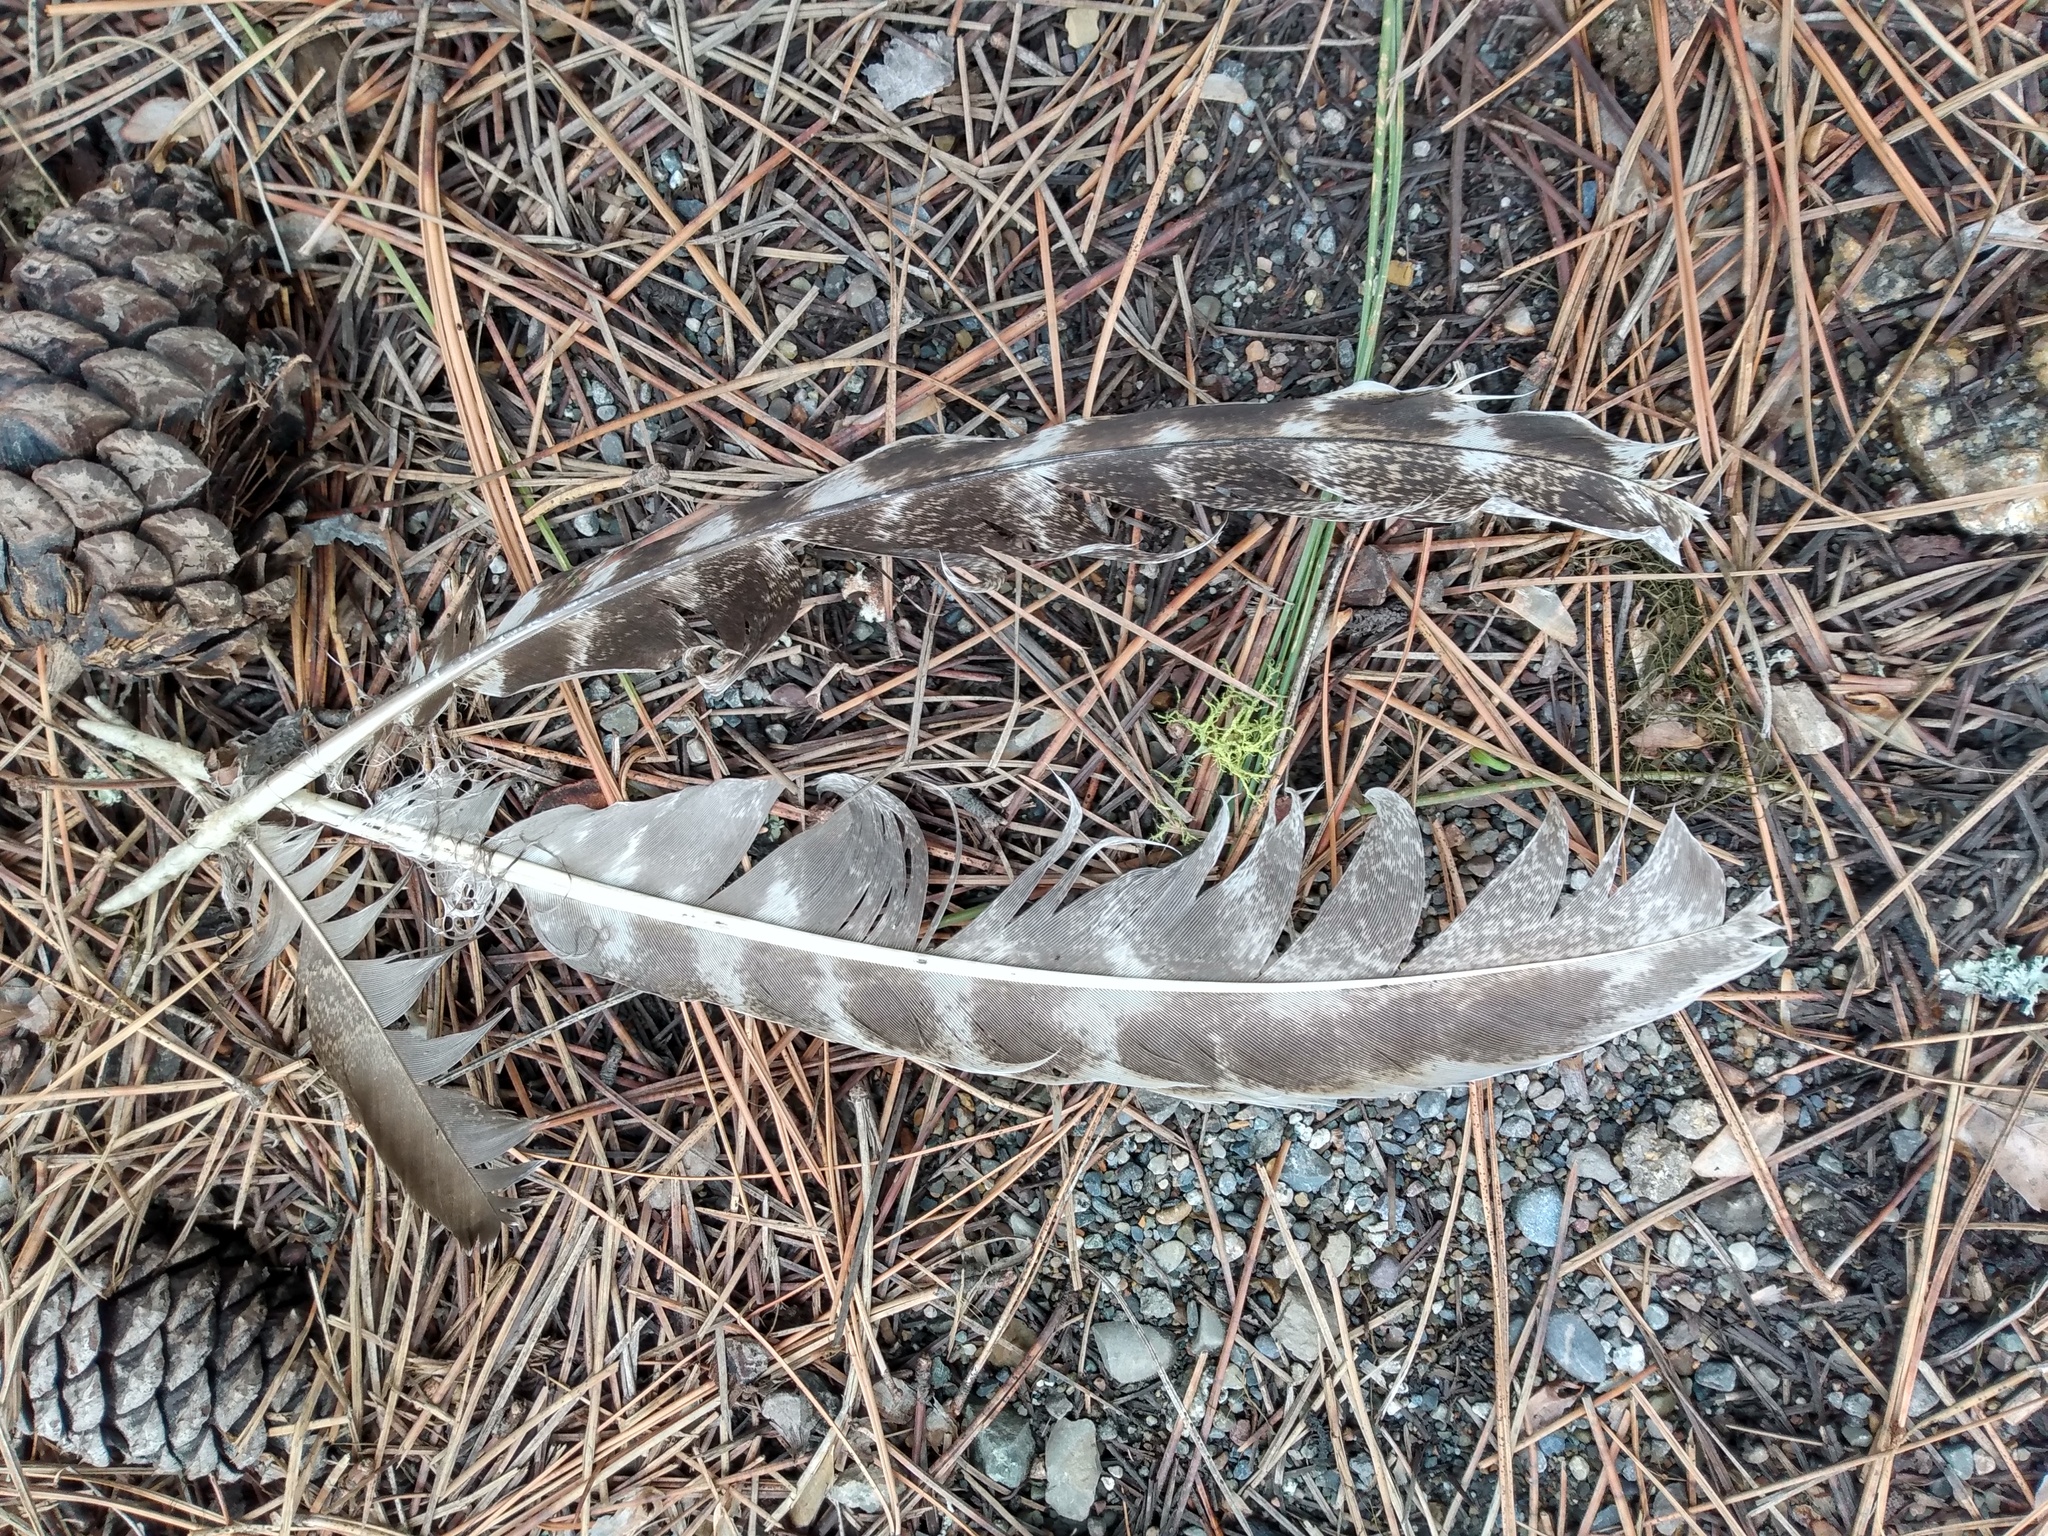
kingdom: Animalia
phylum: Chordata
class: Aves
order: Galliformes
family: Phasianidae
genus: Meleagris
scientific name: Meleagris gallopavo
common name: Wild turkey
